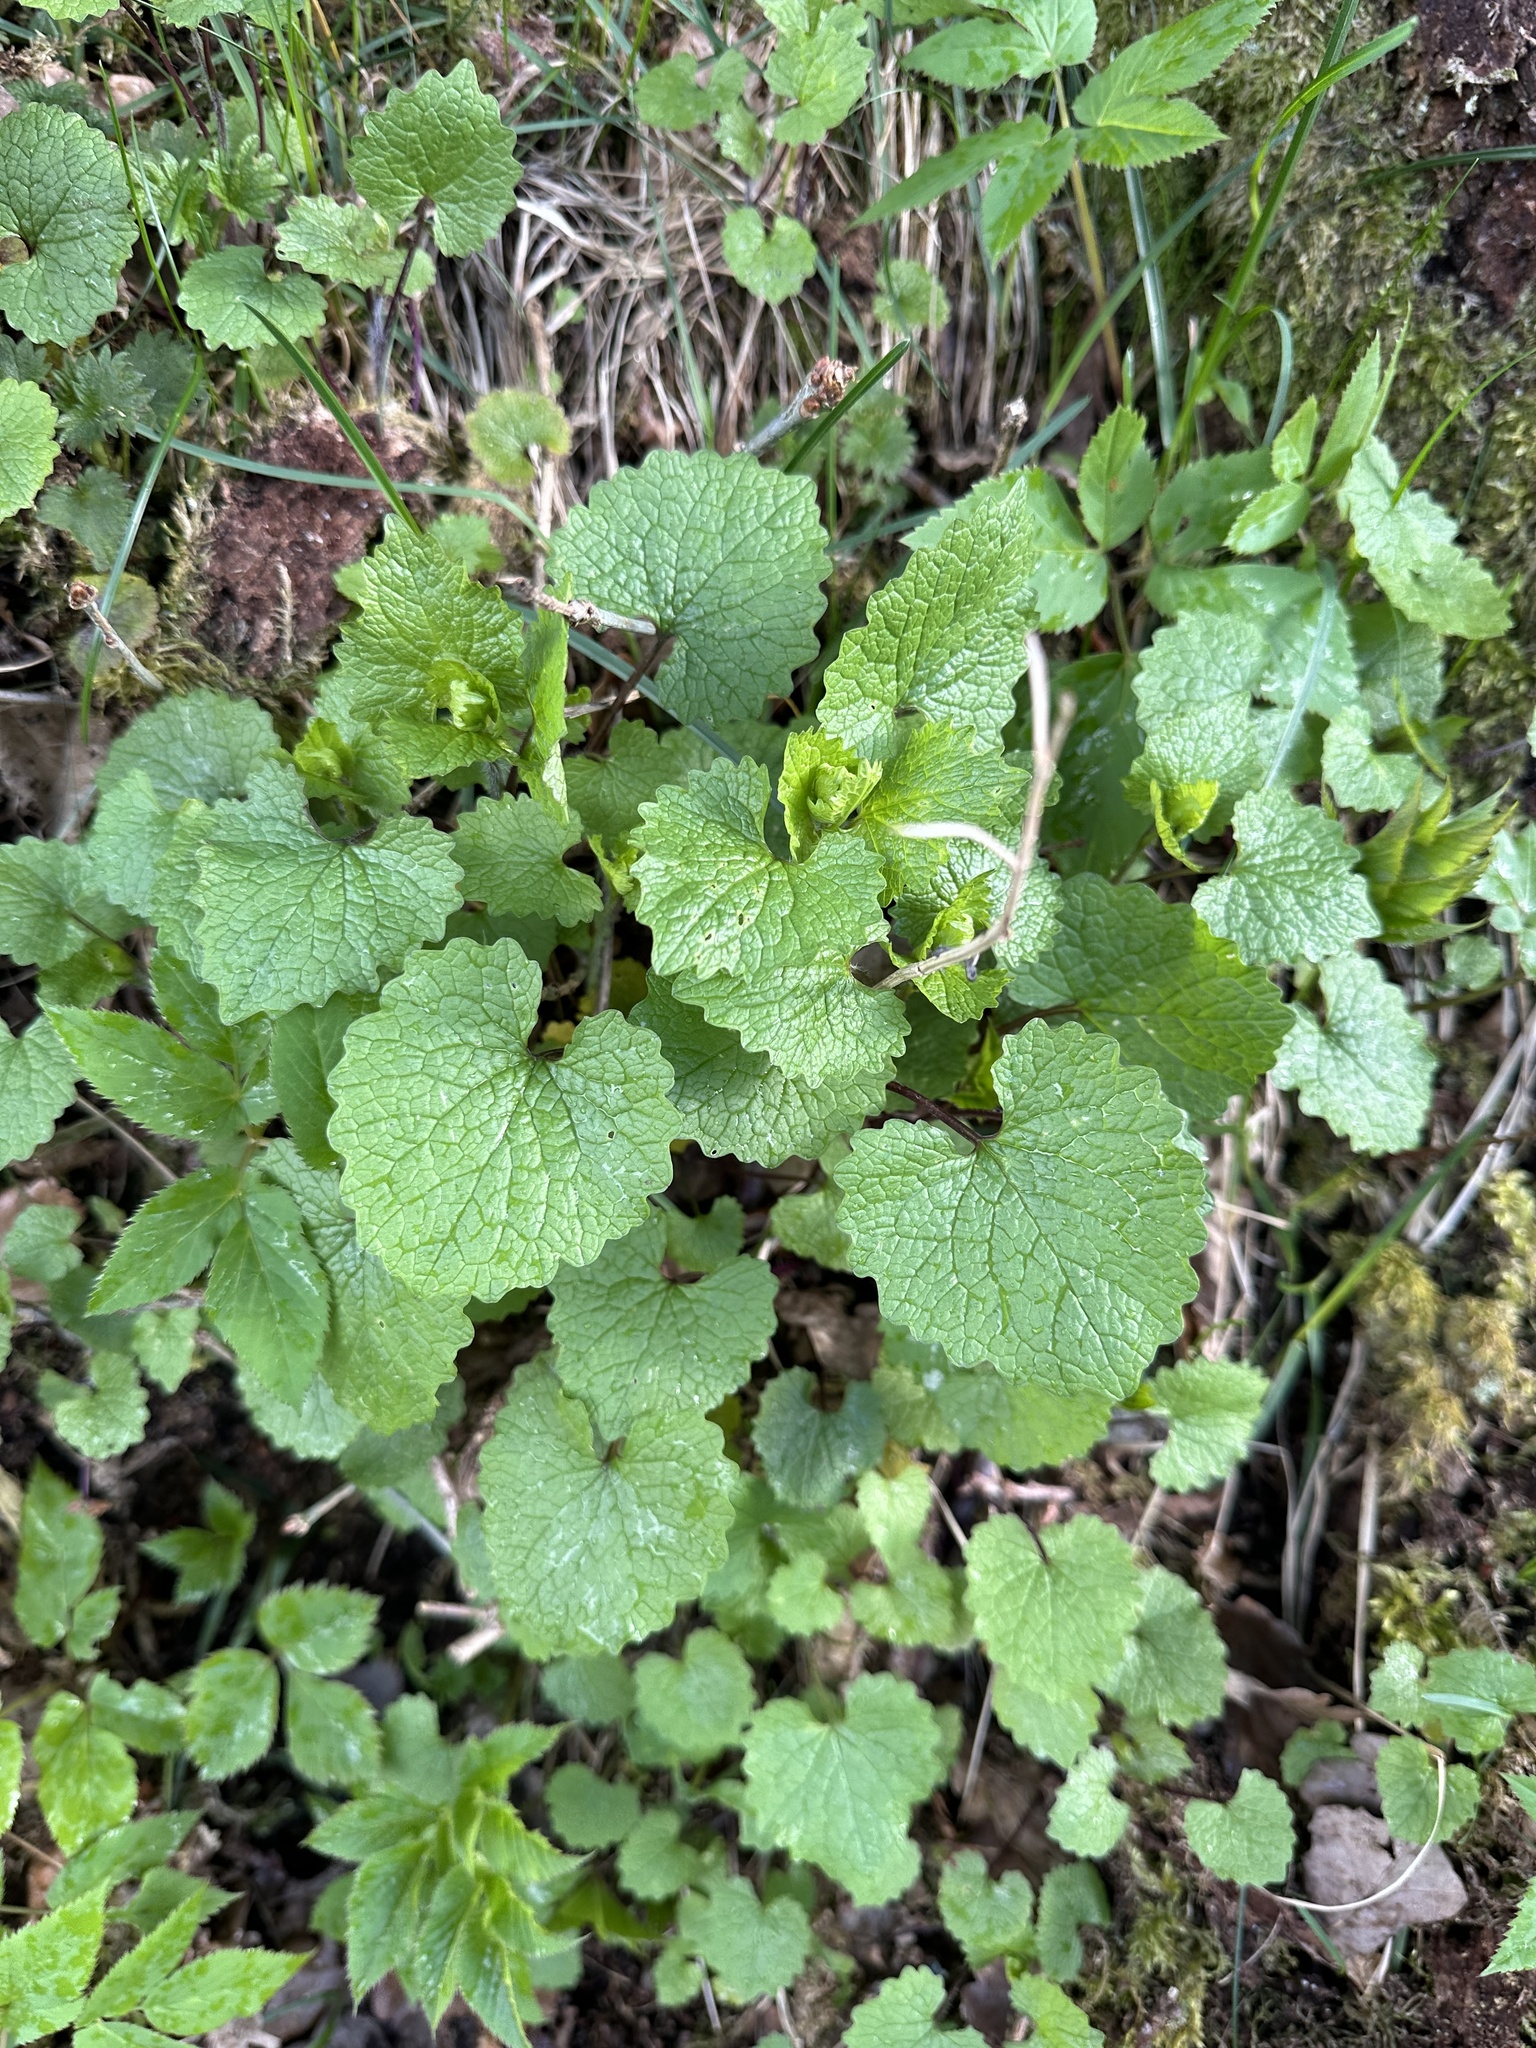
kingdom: Plantae
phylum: Tracheophyta
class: Magnoliopsida
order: Brassicales
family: Brassicaceae
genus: Alliaria
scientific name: Alliaria petiolata
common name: Garlic mustard
